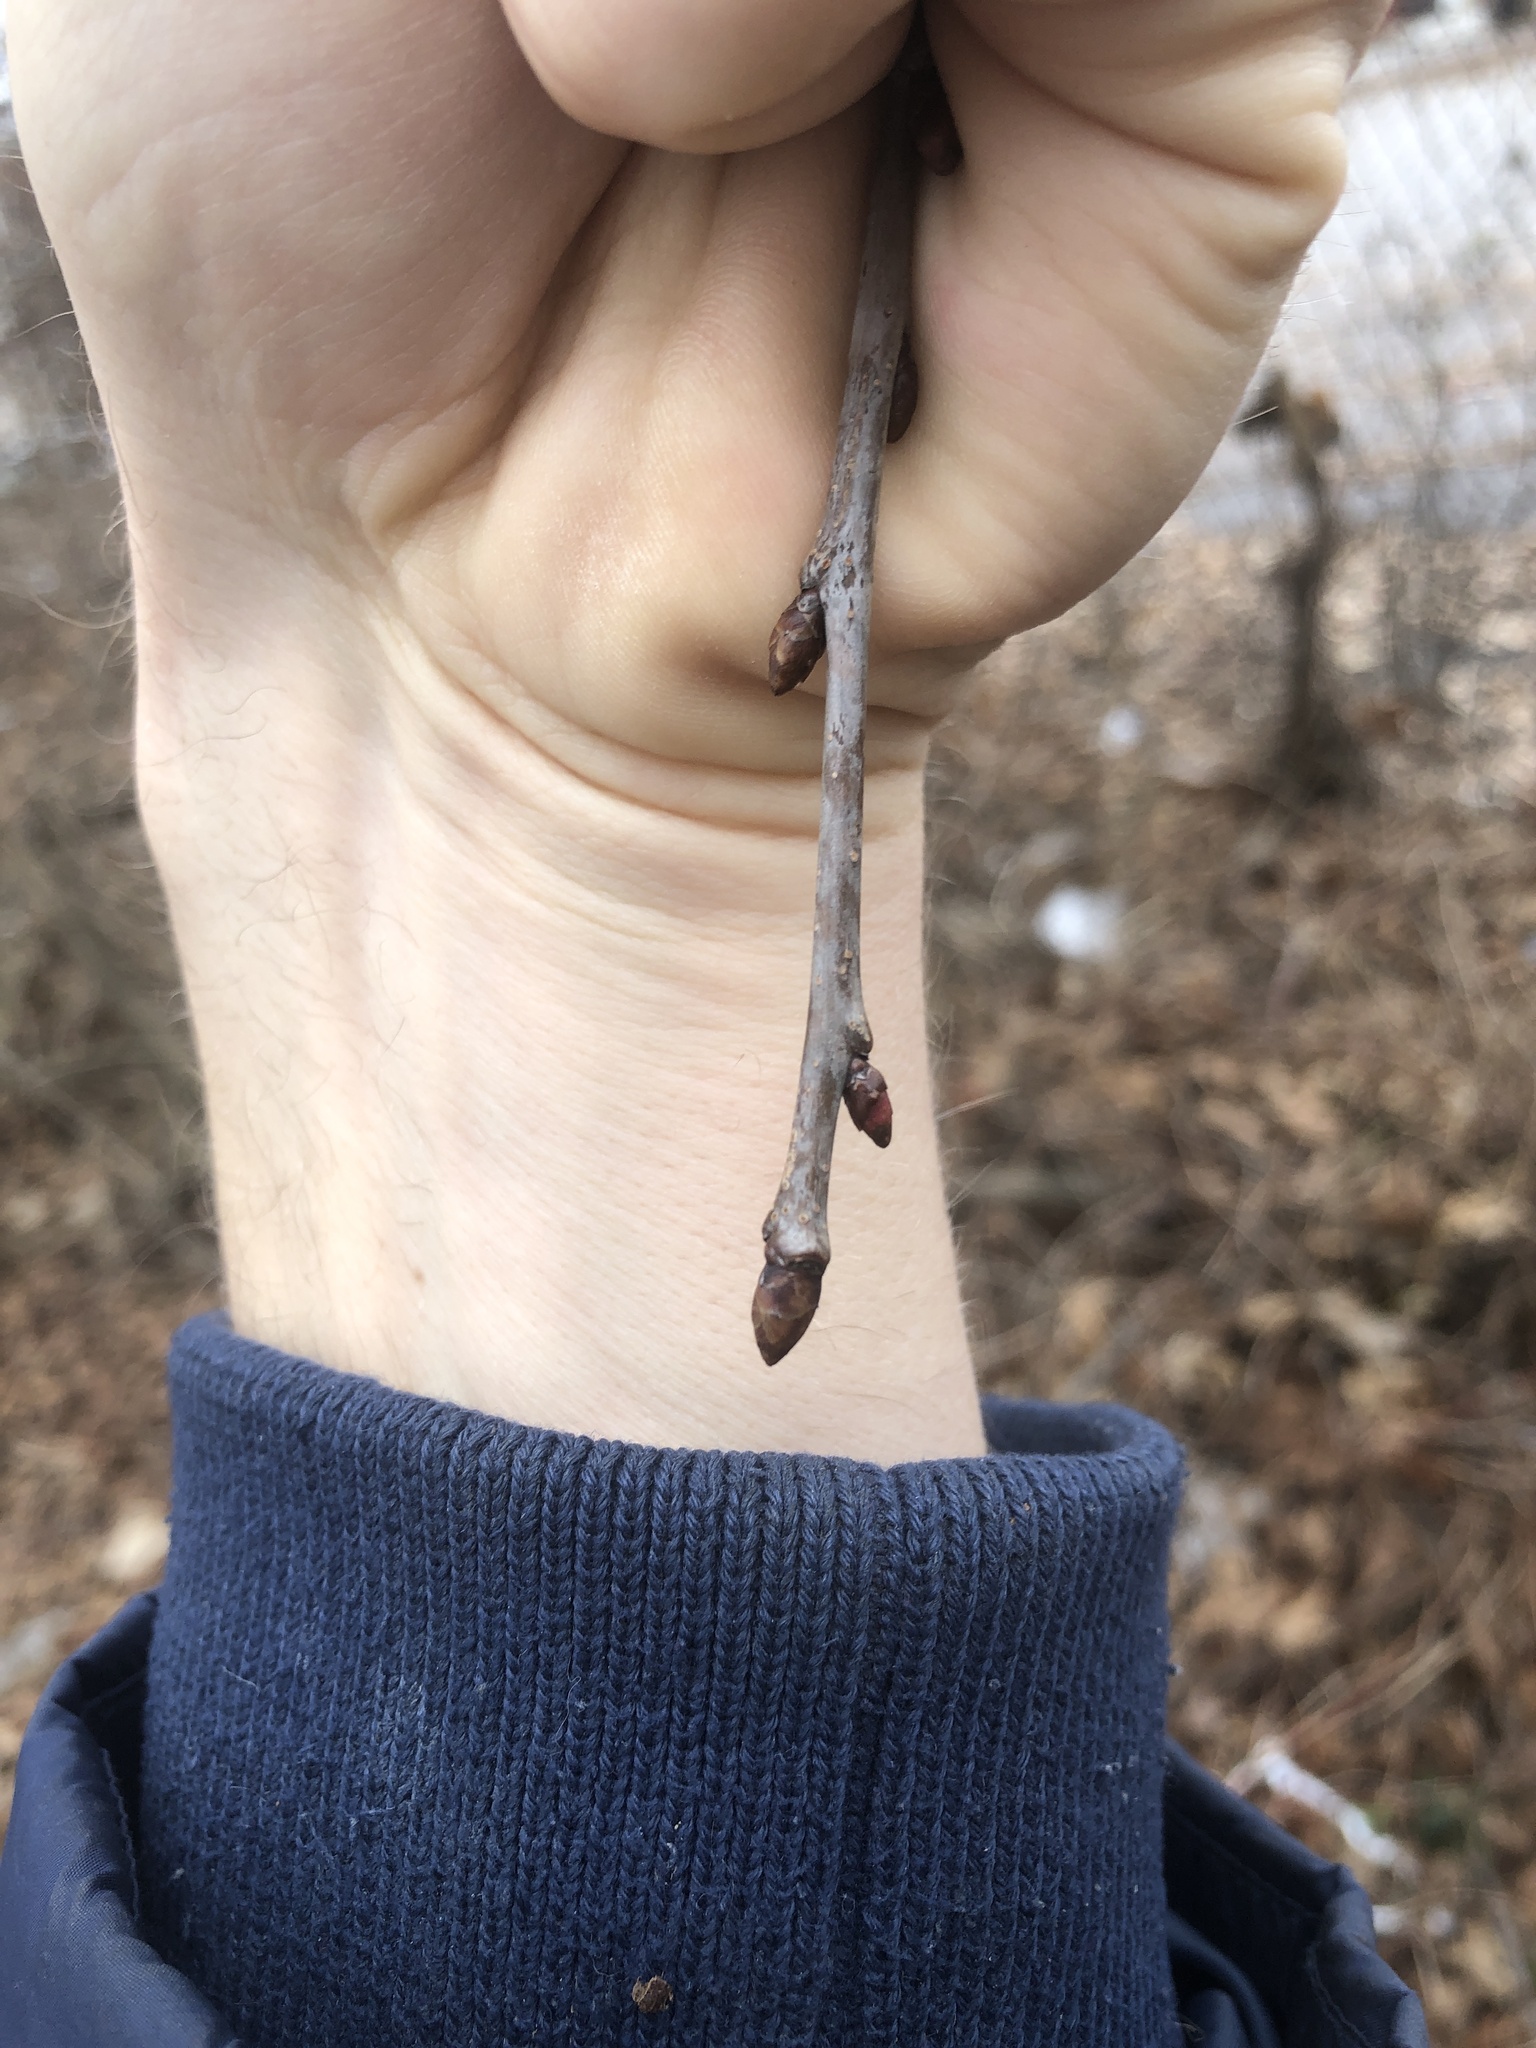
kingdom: Plantae
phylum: Tracheophyta
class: Magnoliopsida
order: Rosales
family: Rosaceae
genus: Prunus
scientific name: Prunus avium
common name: Sweet cherry
